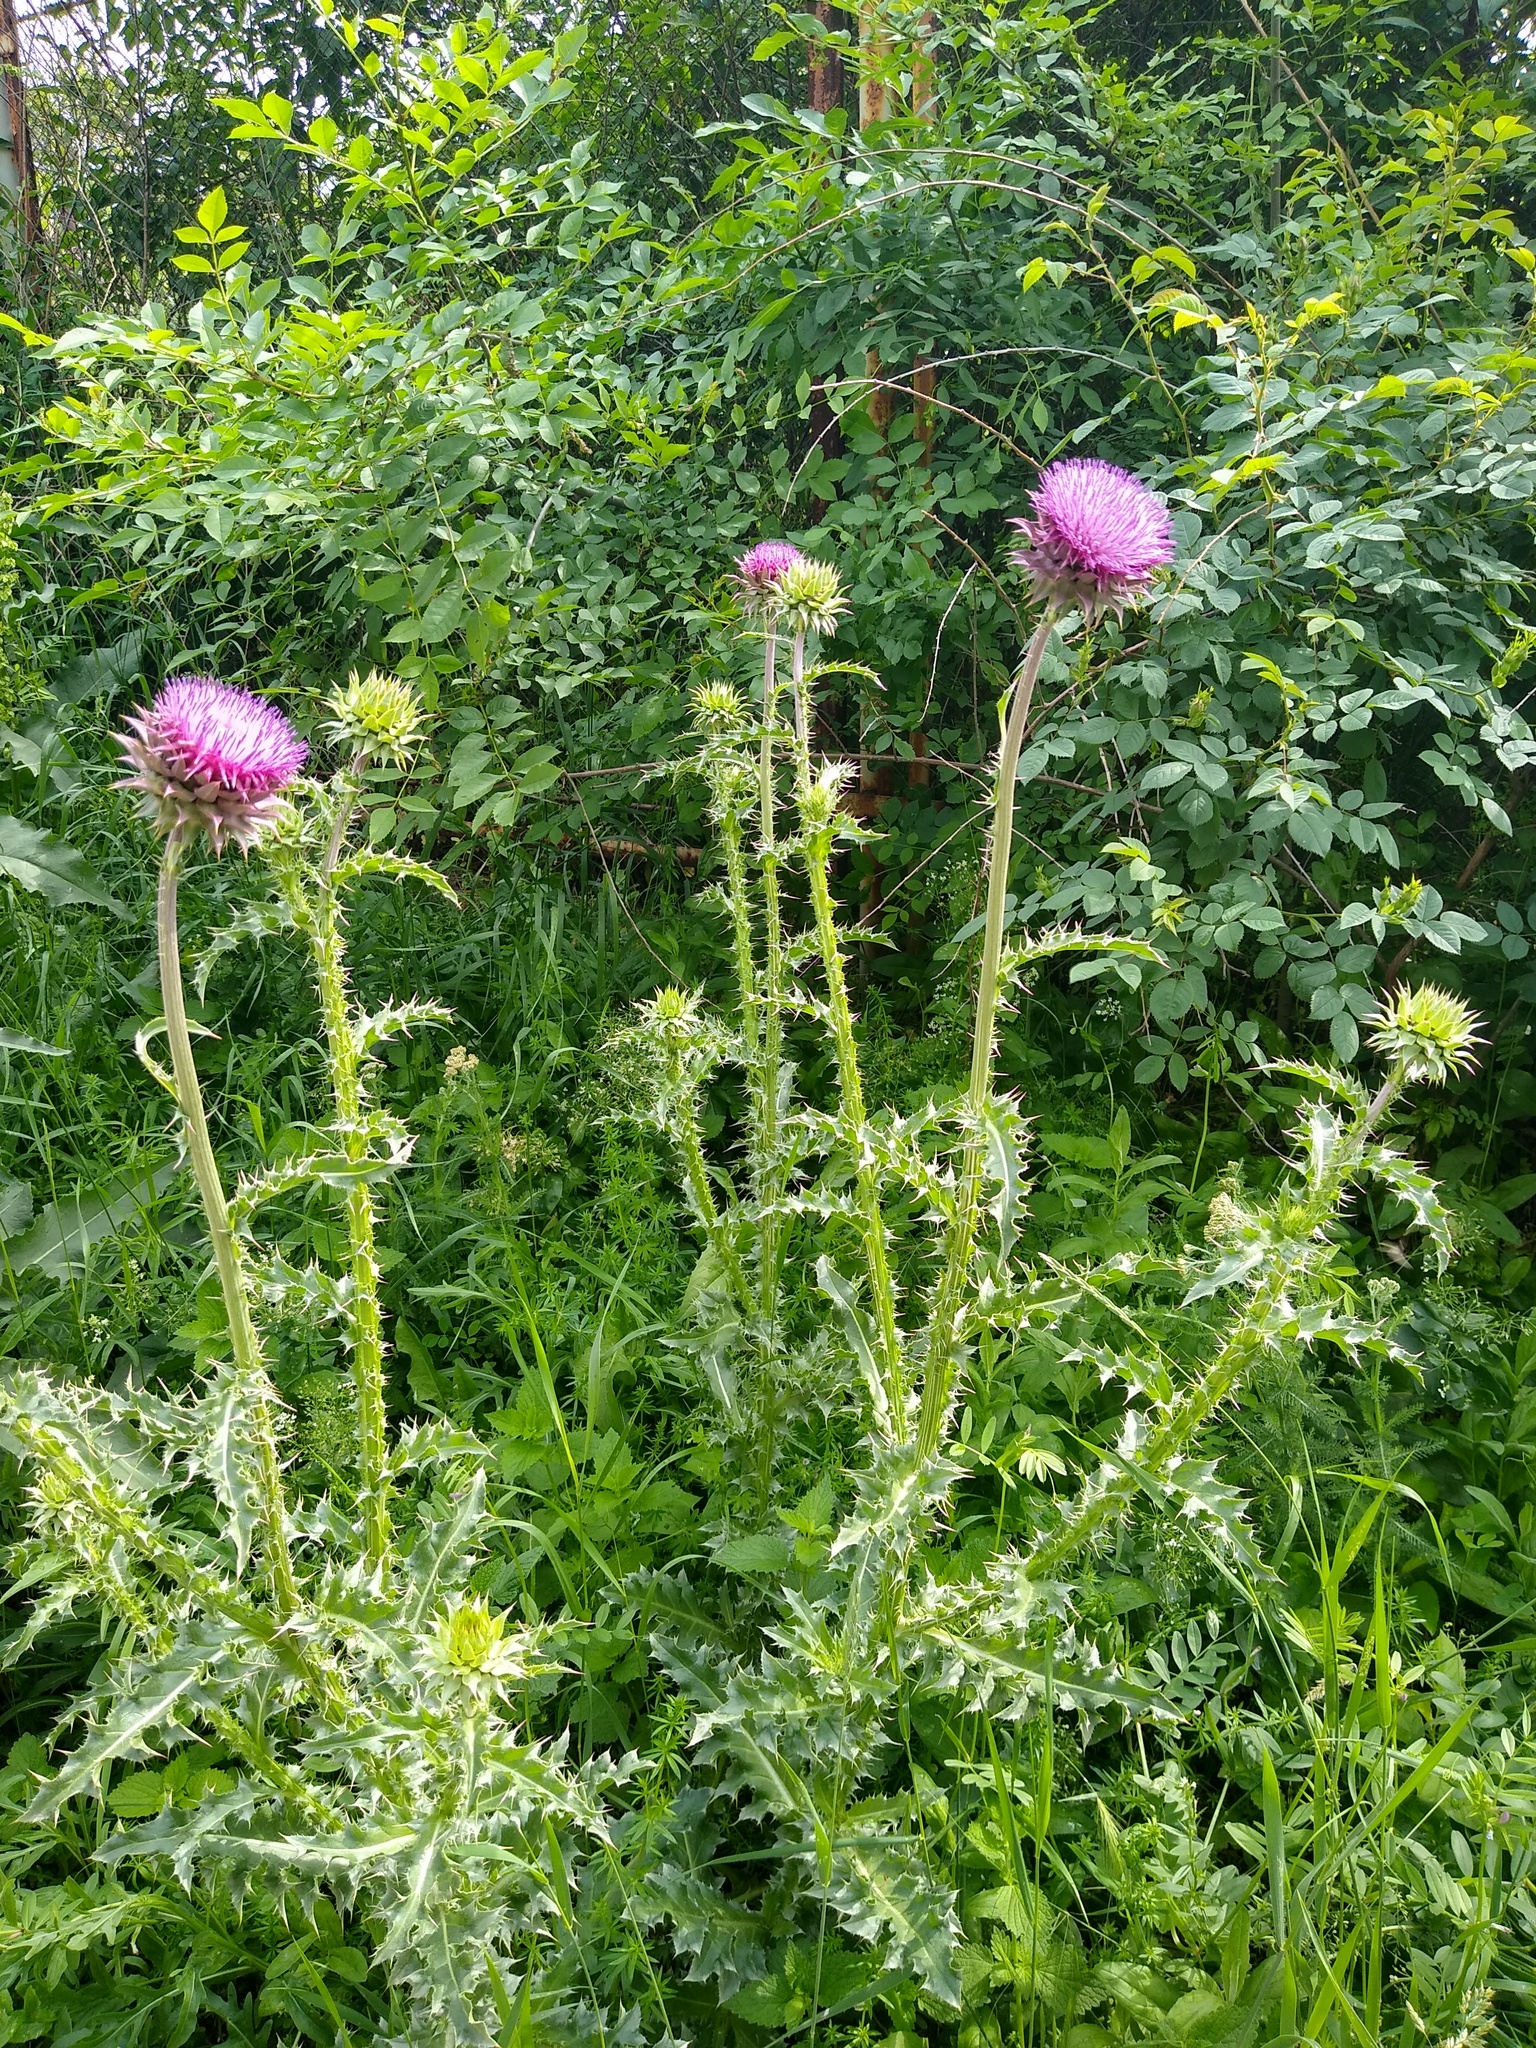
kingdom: Plantae
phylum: Tracheophyta
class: Magnoliopsida
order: Asterales
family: Asteraceae
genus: Carduus
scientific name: Carduus nutans
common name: Musk thistle
